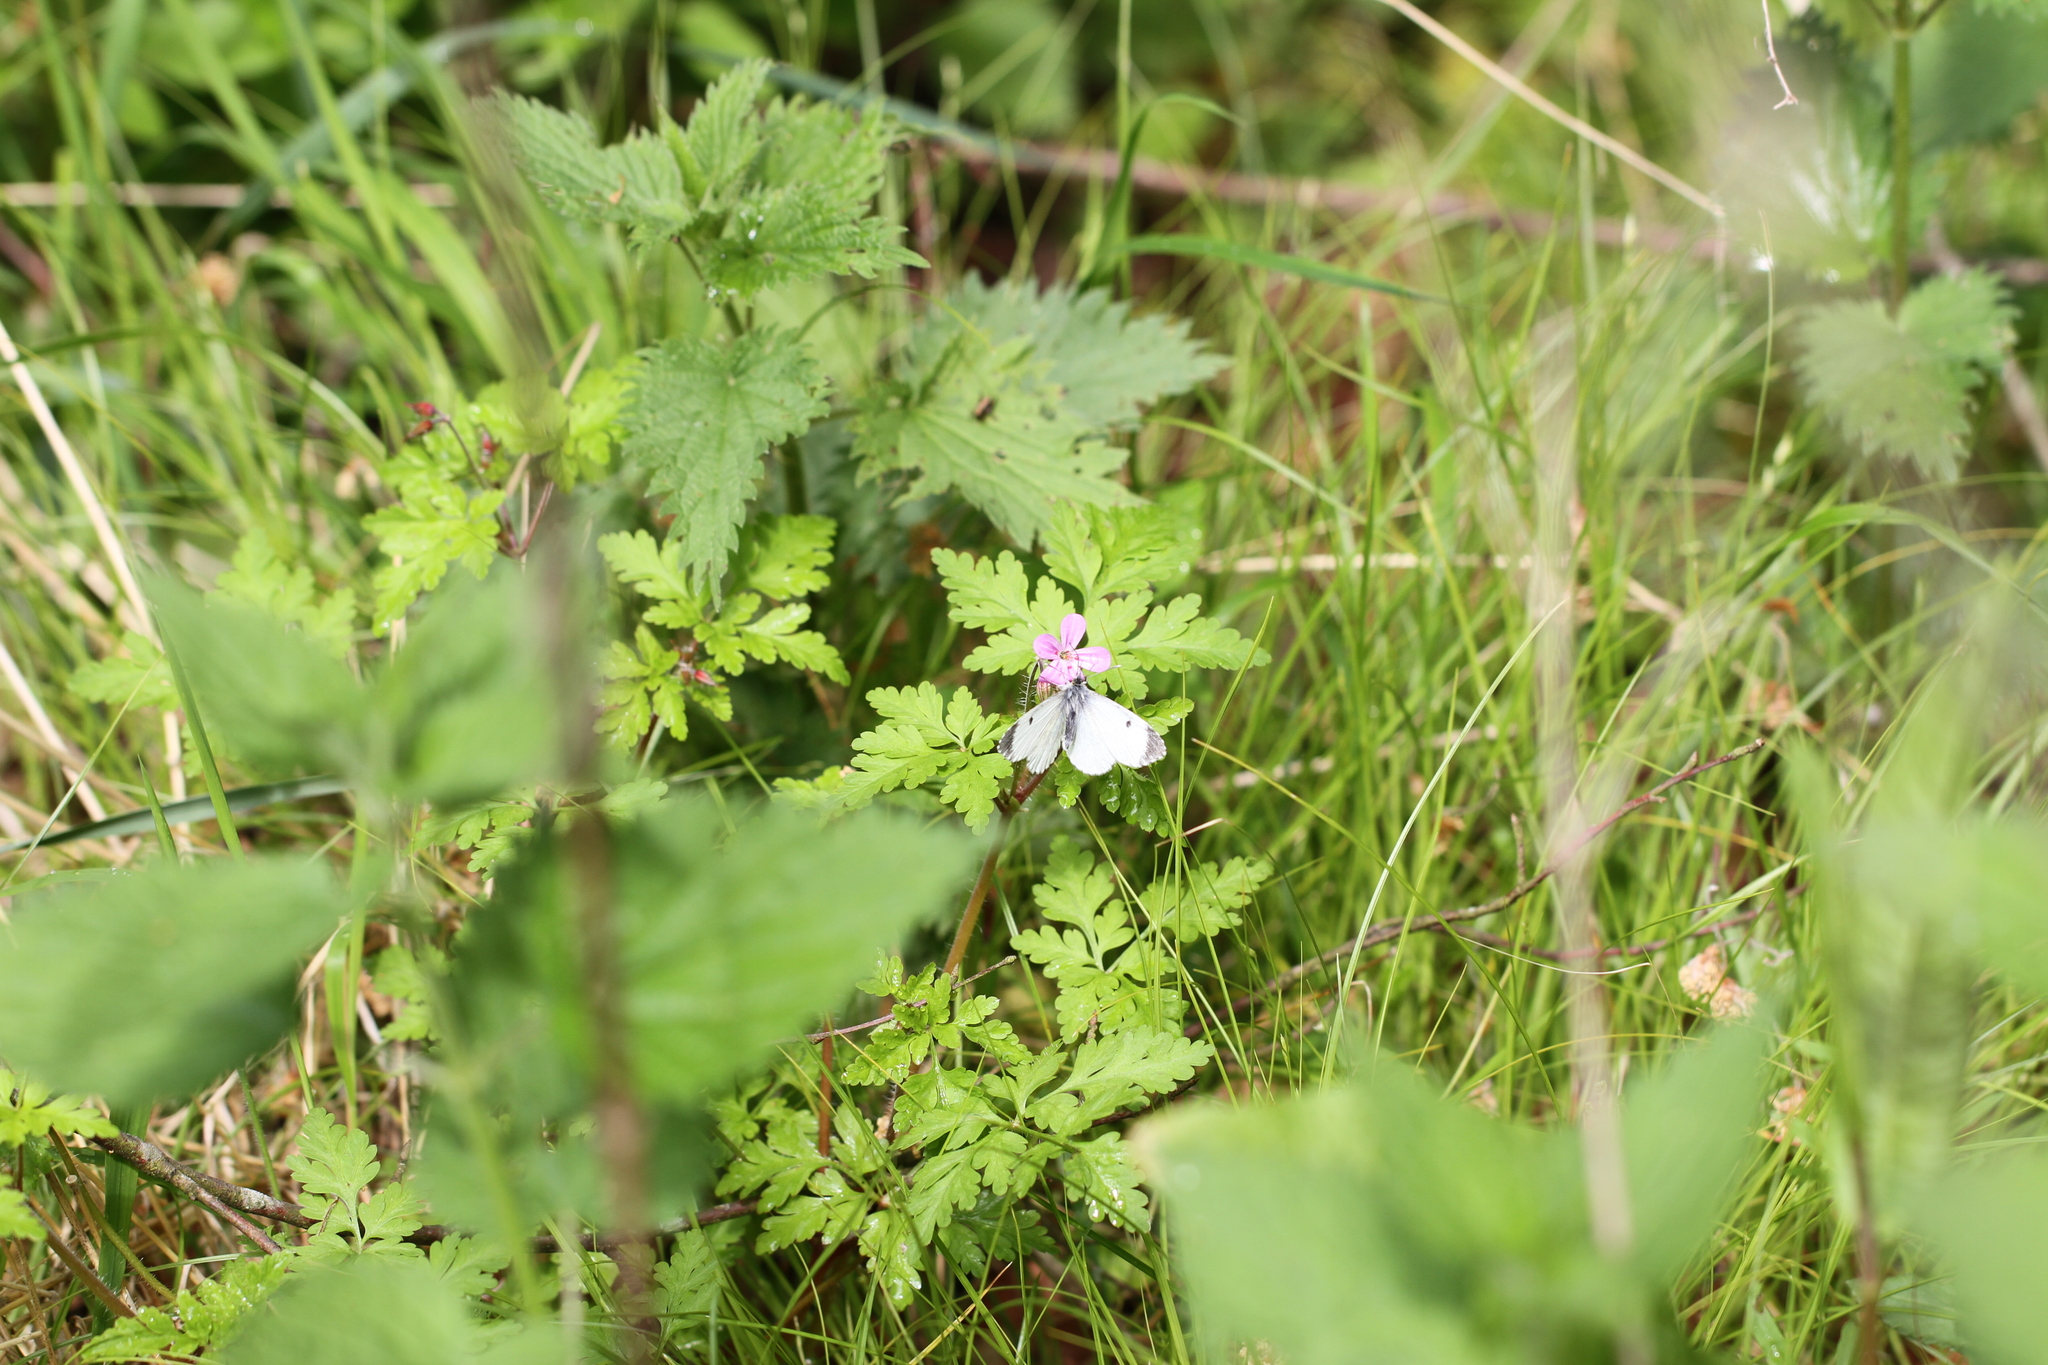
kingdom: Animalia
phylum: Arthropoda
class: Insecta
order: Lepidoptera
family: Pieridae
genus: Anthocharis
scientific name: Anthocharis cardamines
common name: Orange-tip
